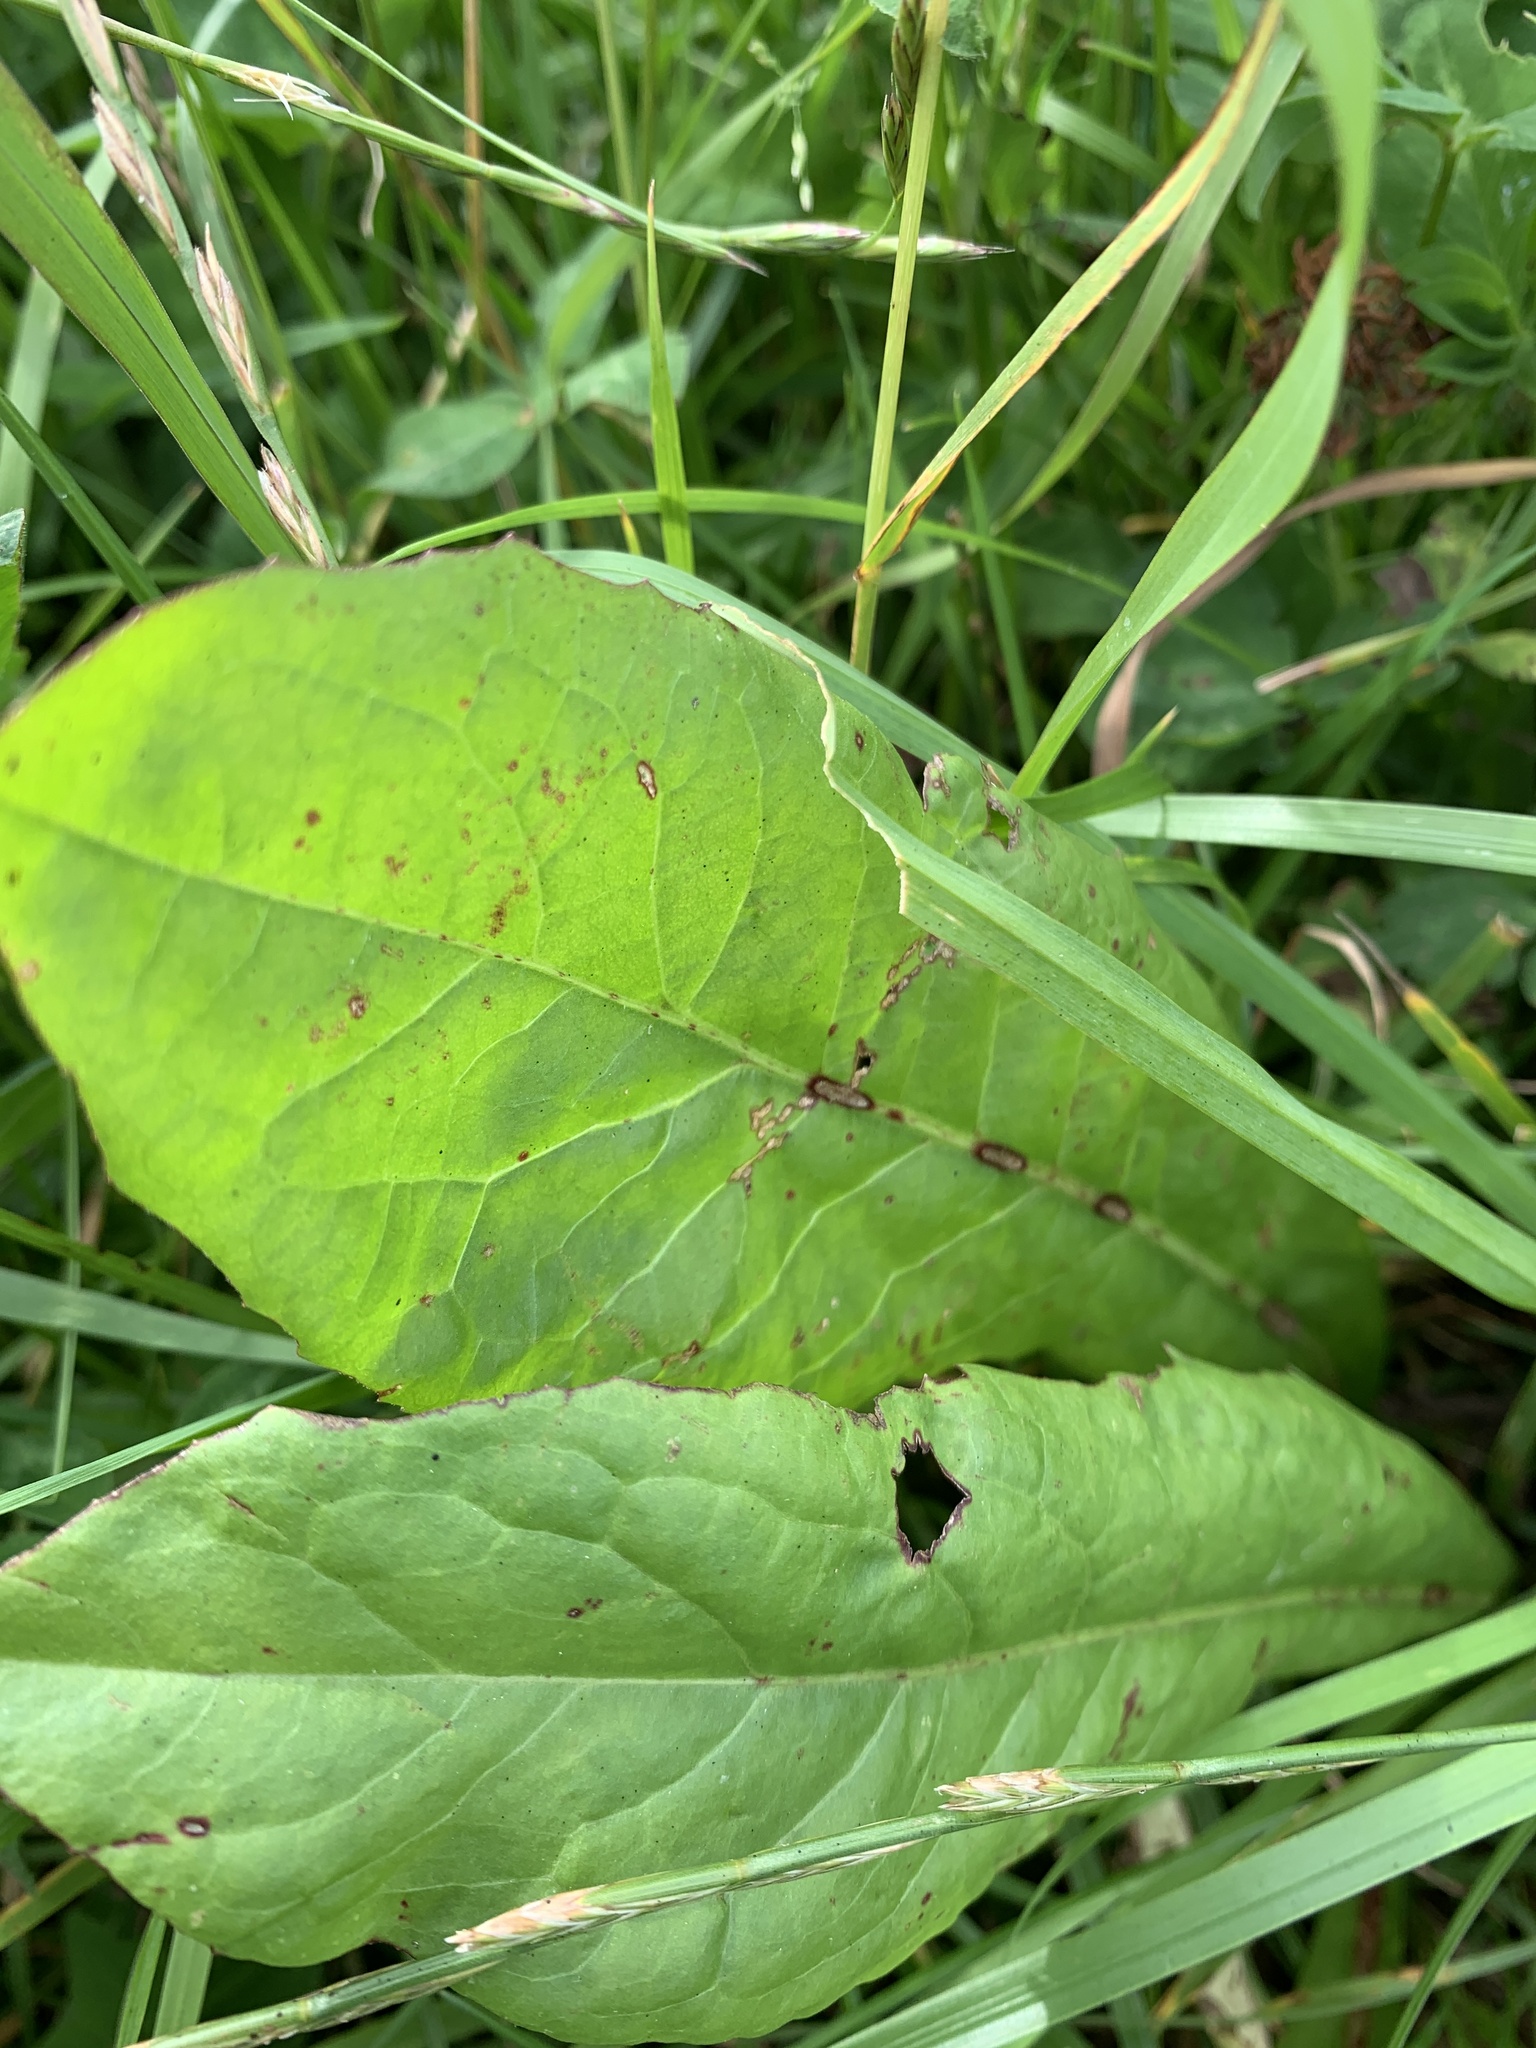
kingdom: Plantae
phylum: Tracheophyta
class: Magnoliopsida
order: Caryophyllales
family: Polygonaceae
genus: Rumex
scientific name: Rumex obtusifolius
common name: Bitter dock
